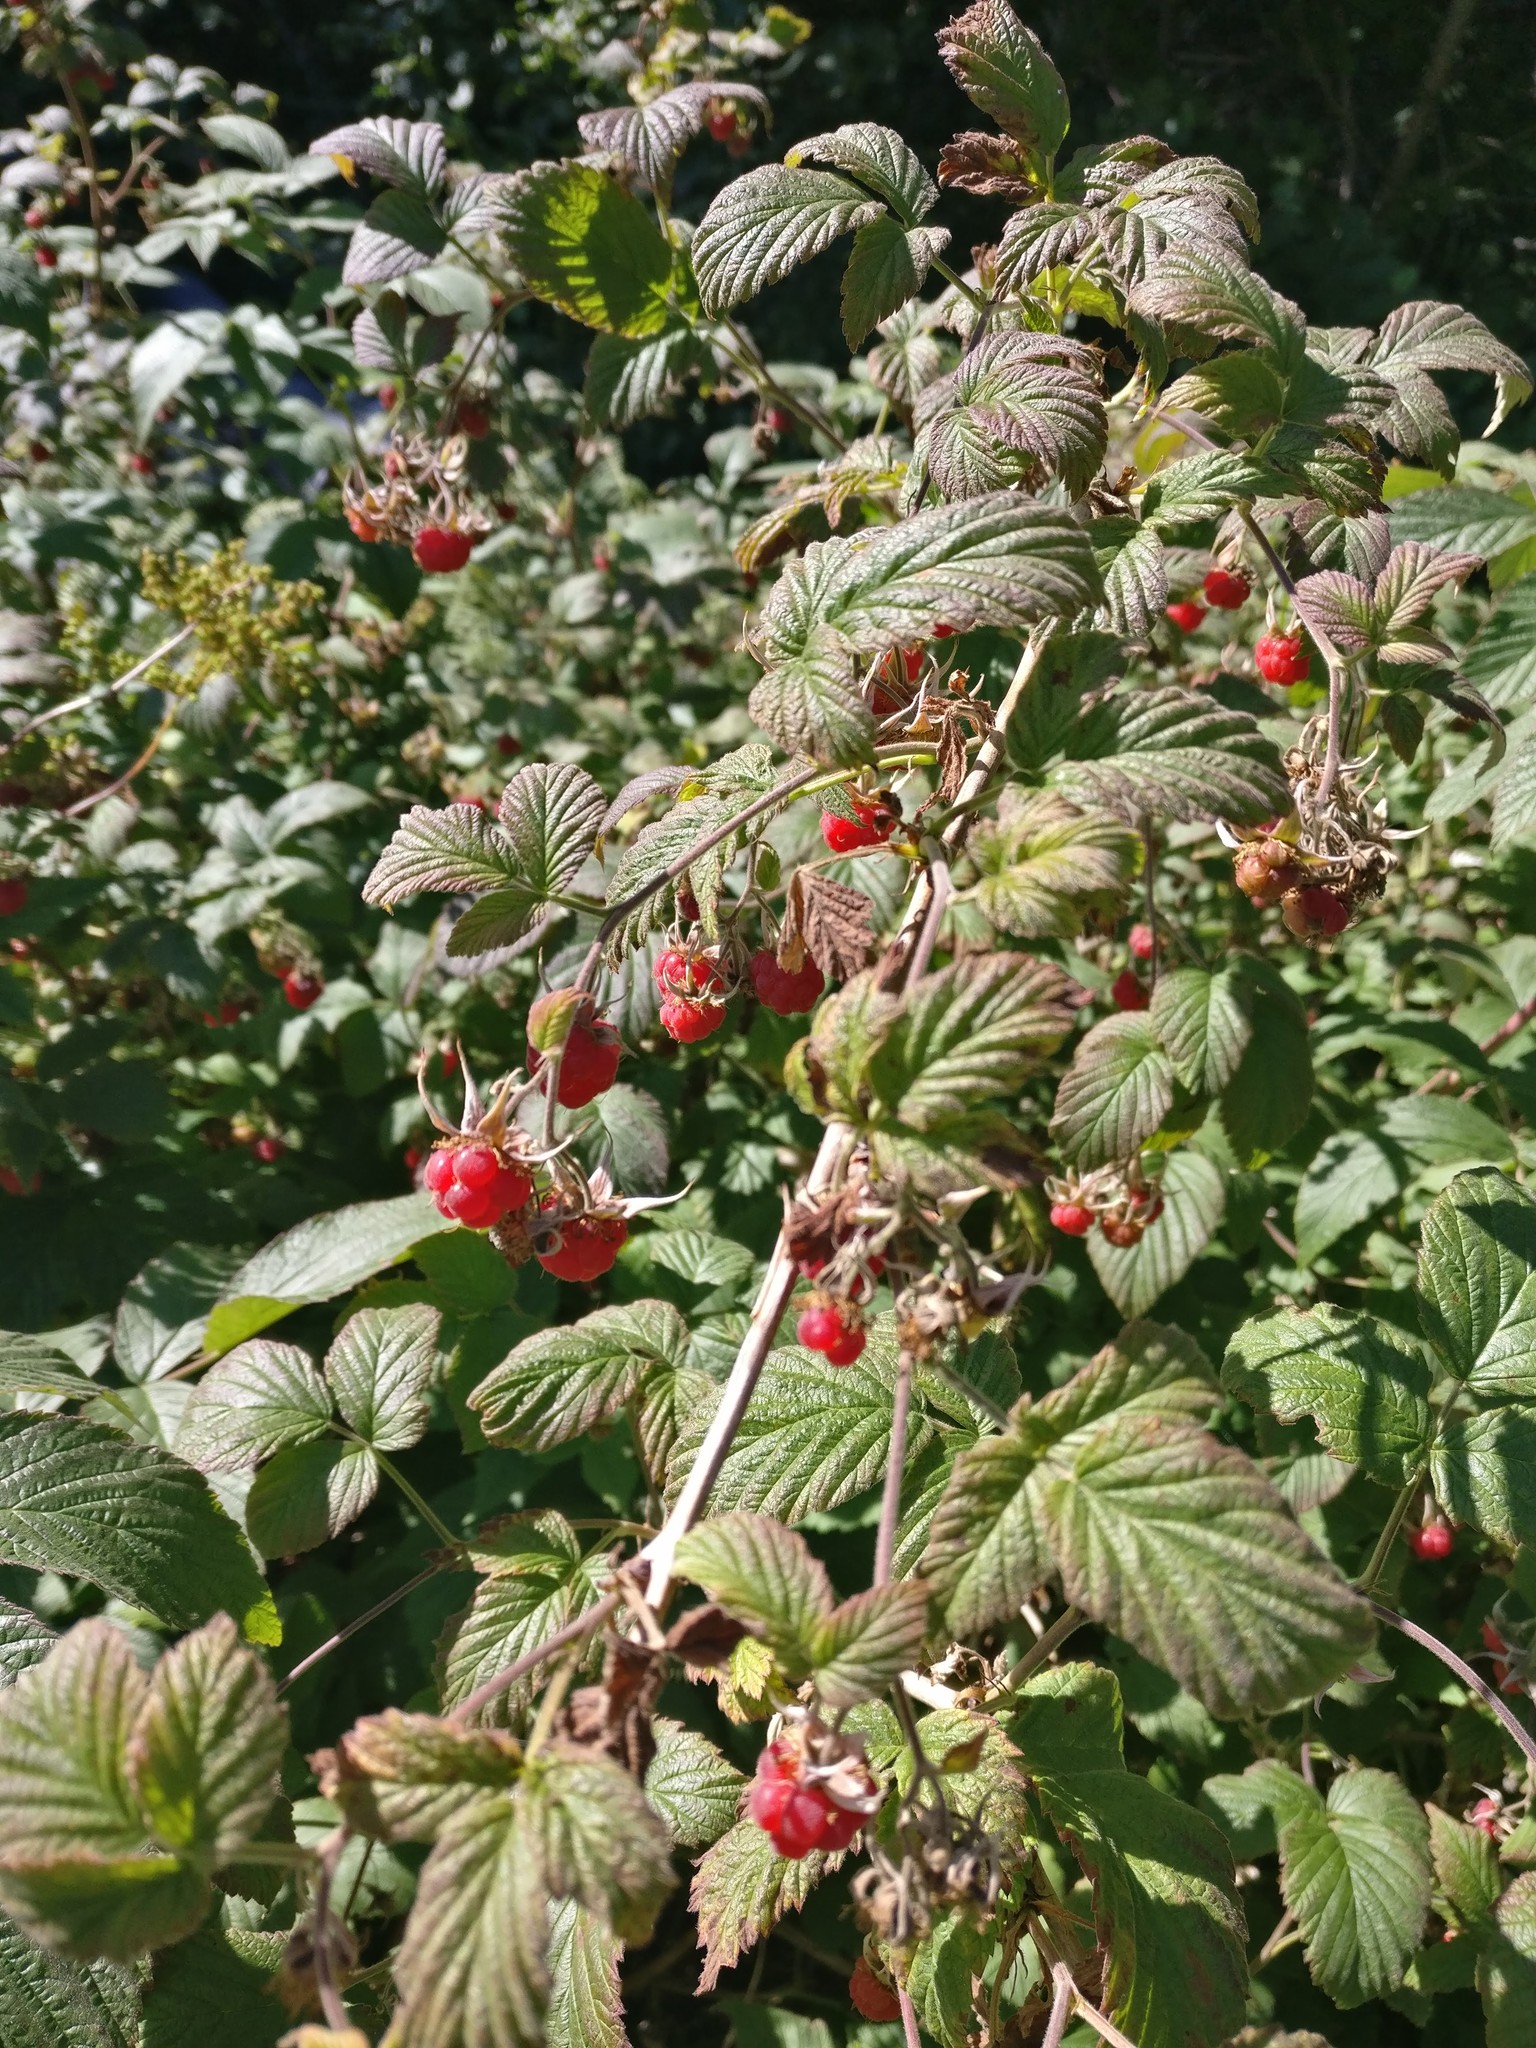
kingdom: Plantae
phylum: Tracheophyta
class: Magnoliopsida
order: Rosales
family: Rosaceae
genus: Rubus
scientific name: Rubus idaeus
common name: Raspberry
